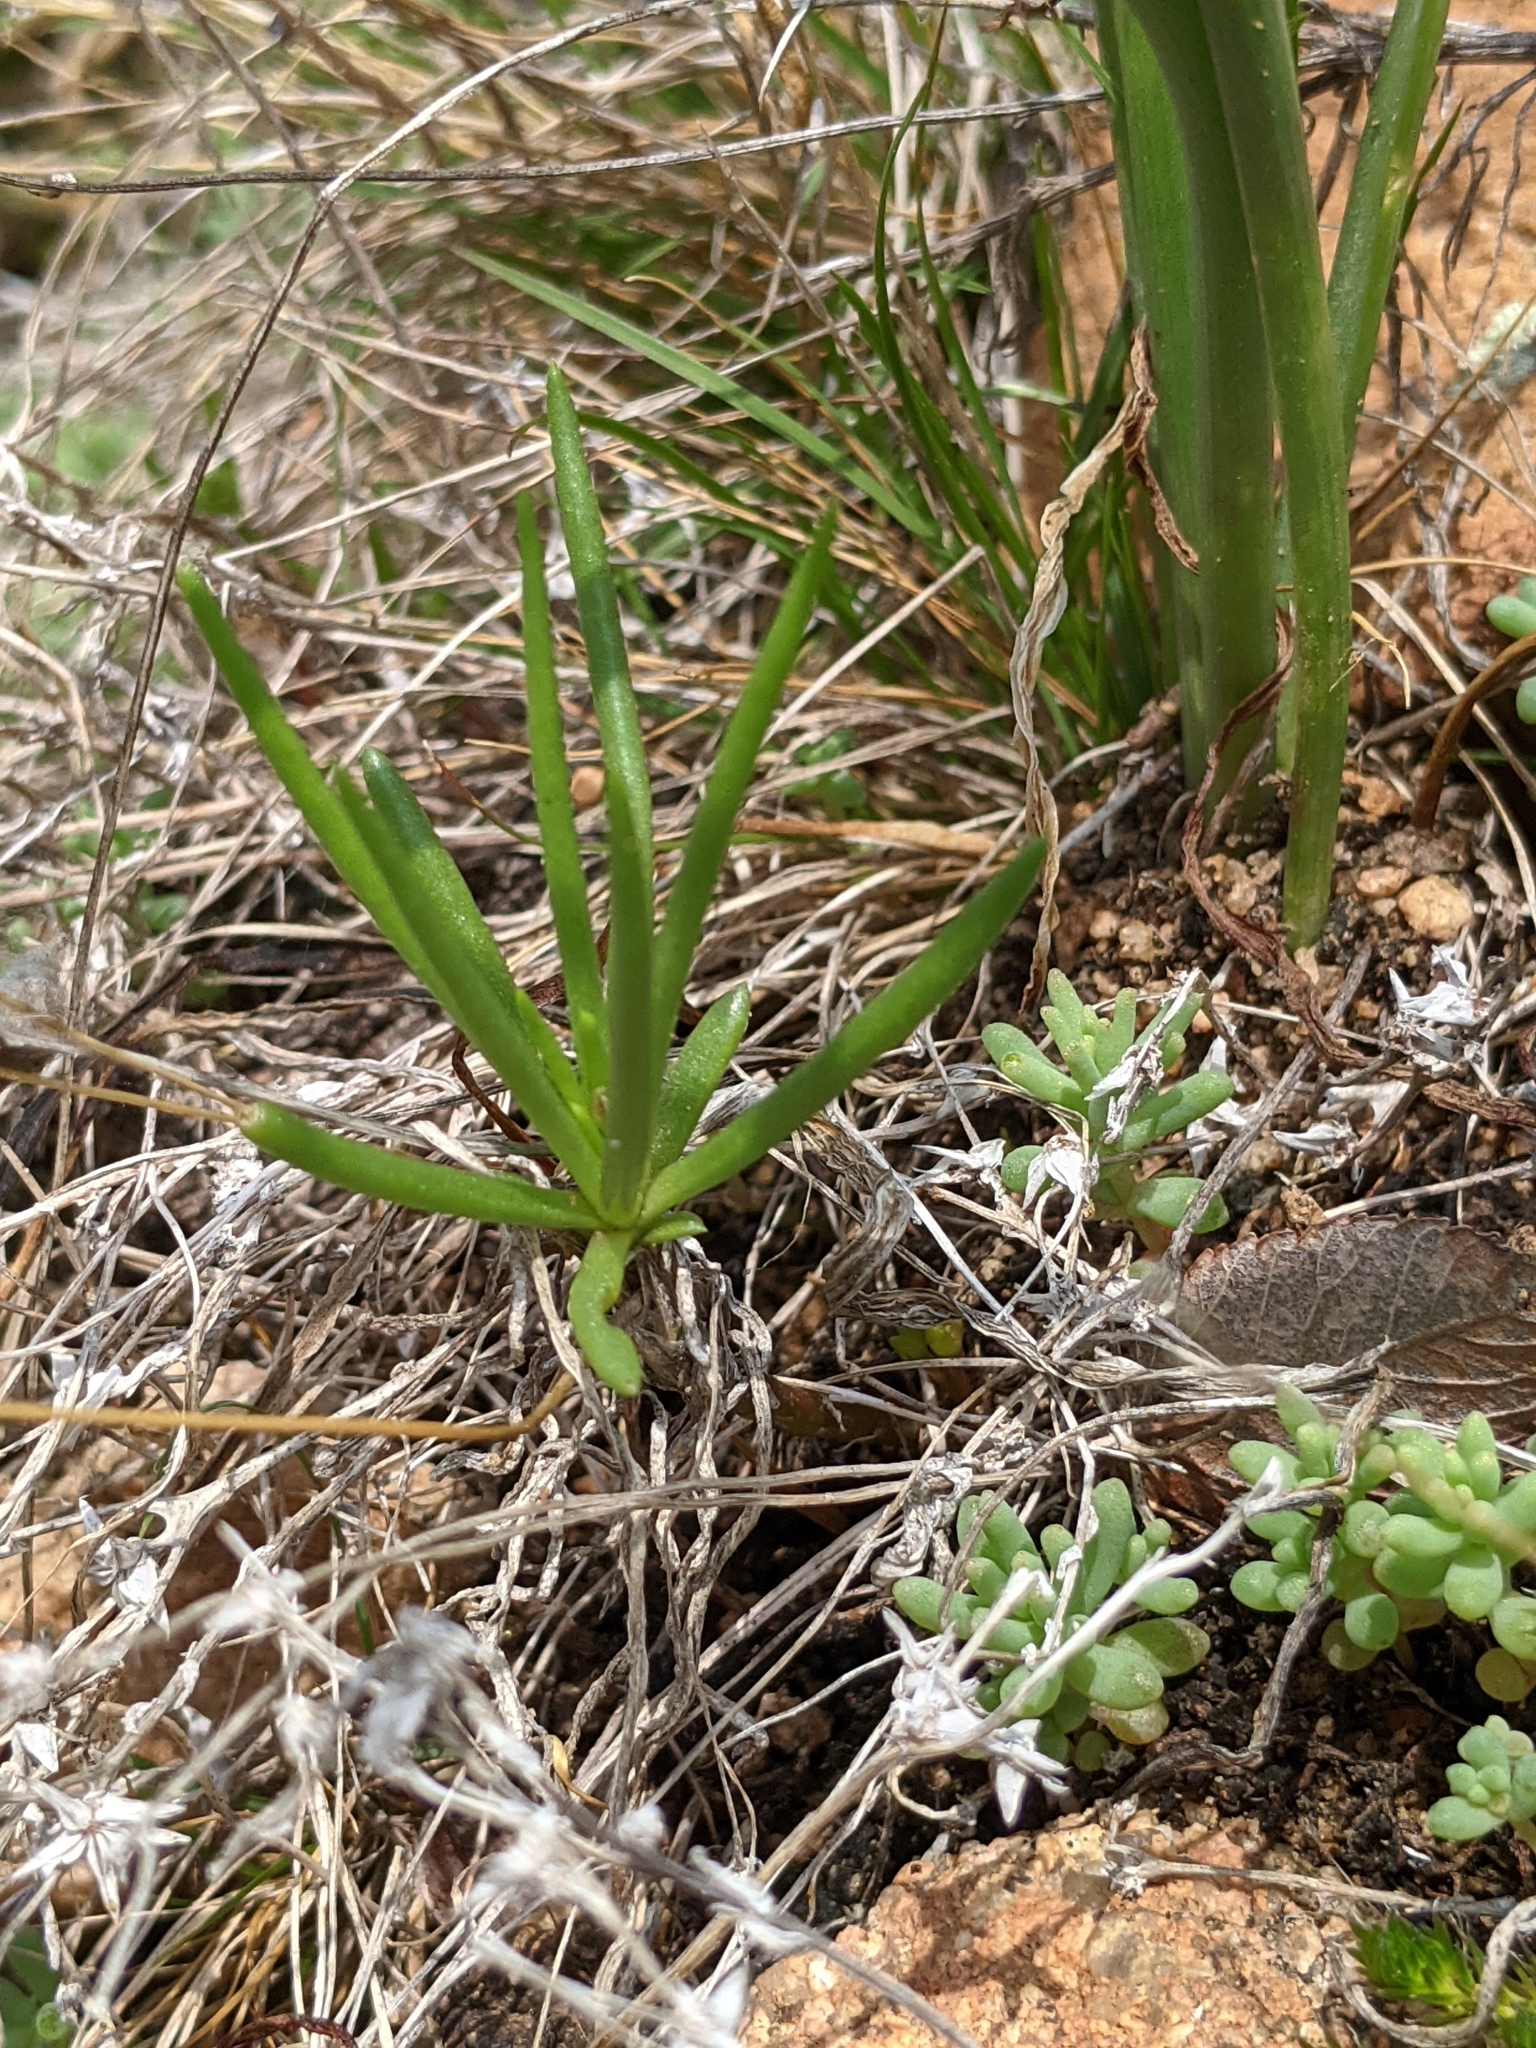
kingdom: Plantae
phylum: Tracheophyta
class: Magnoliopsida
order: Caryophyllales
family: Montiaceae
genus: Phemeranthus
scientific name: Phemeranthus parviflorus
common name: Sunbright
